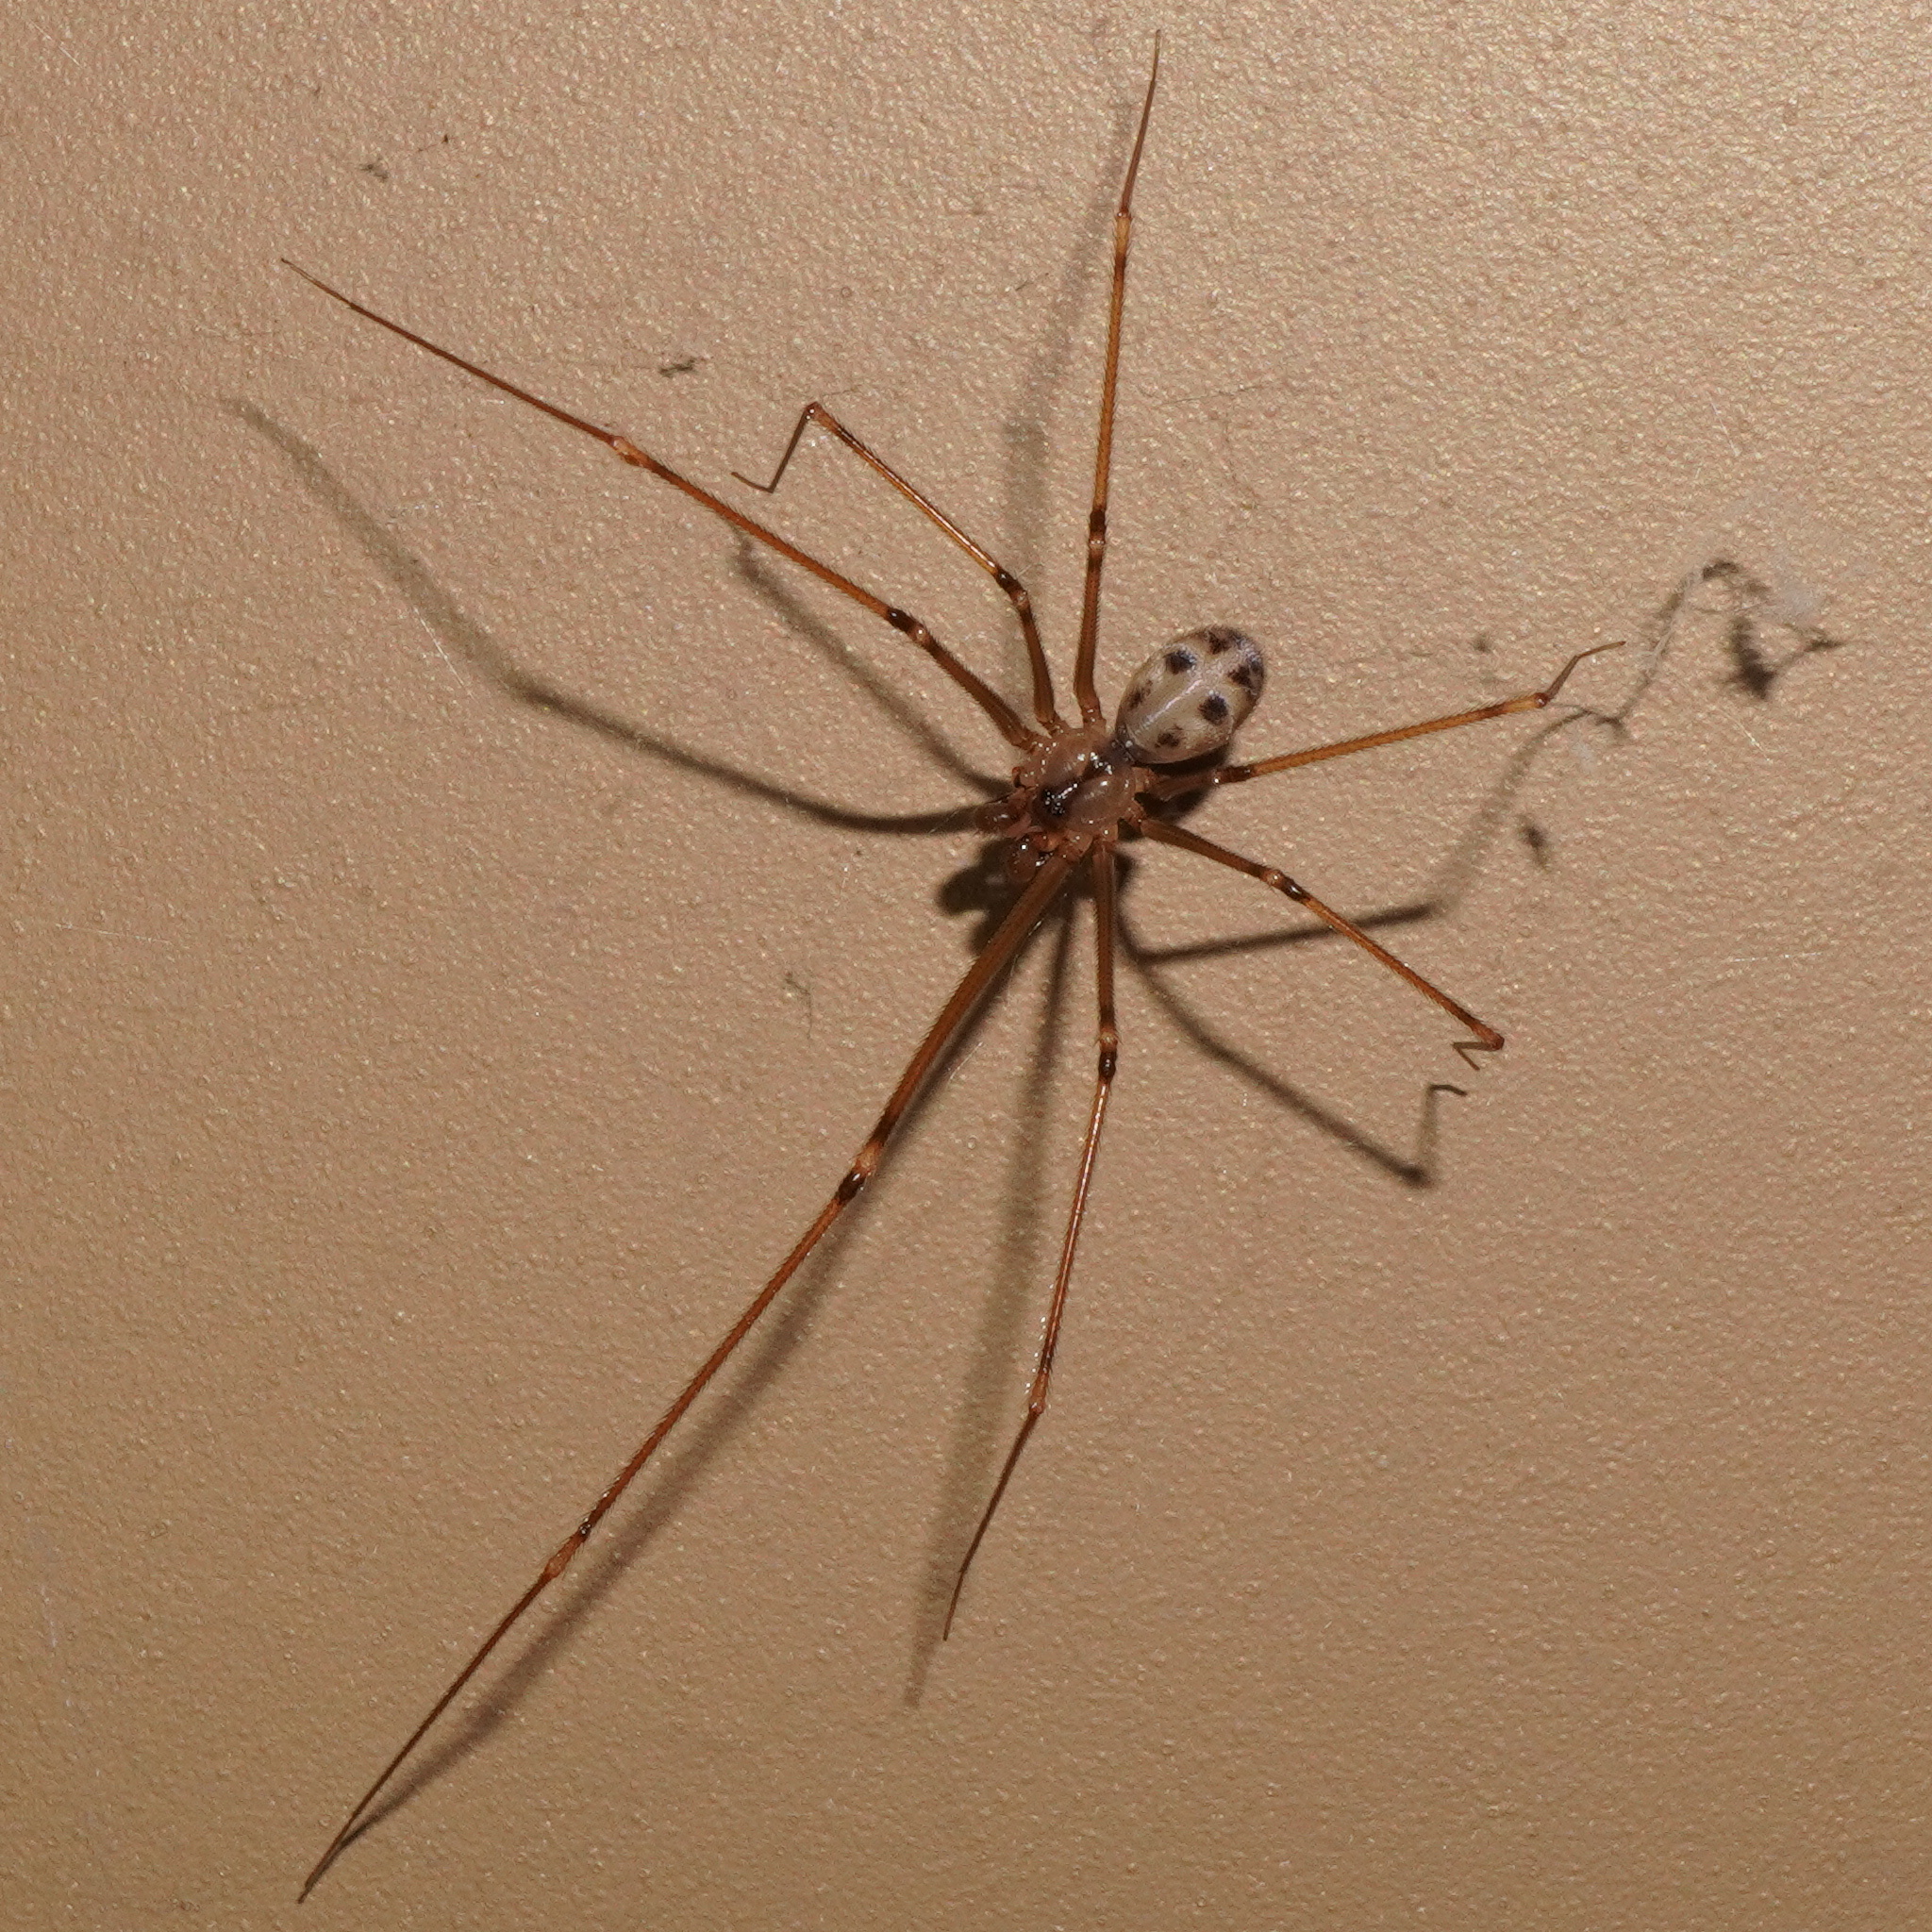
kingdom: Animalia
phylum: Arthropoda
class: Arachnida
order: Araneae
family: Pholcidae
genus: Hoplopholcus
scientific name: Hoplopholcus forskali
